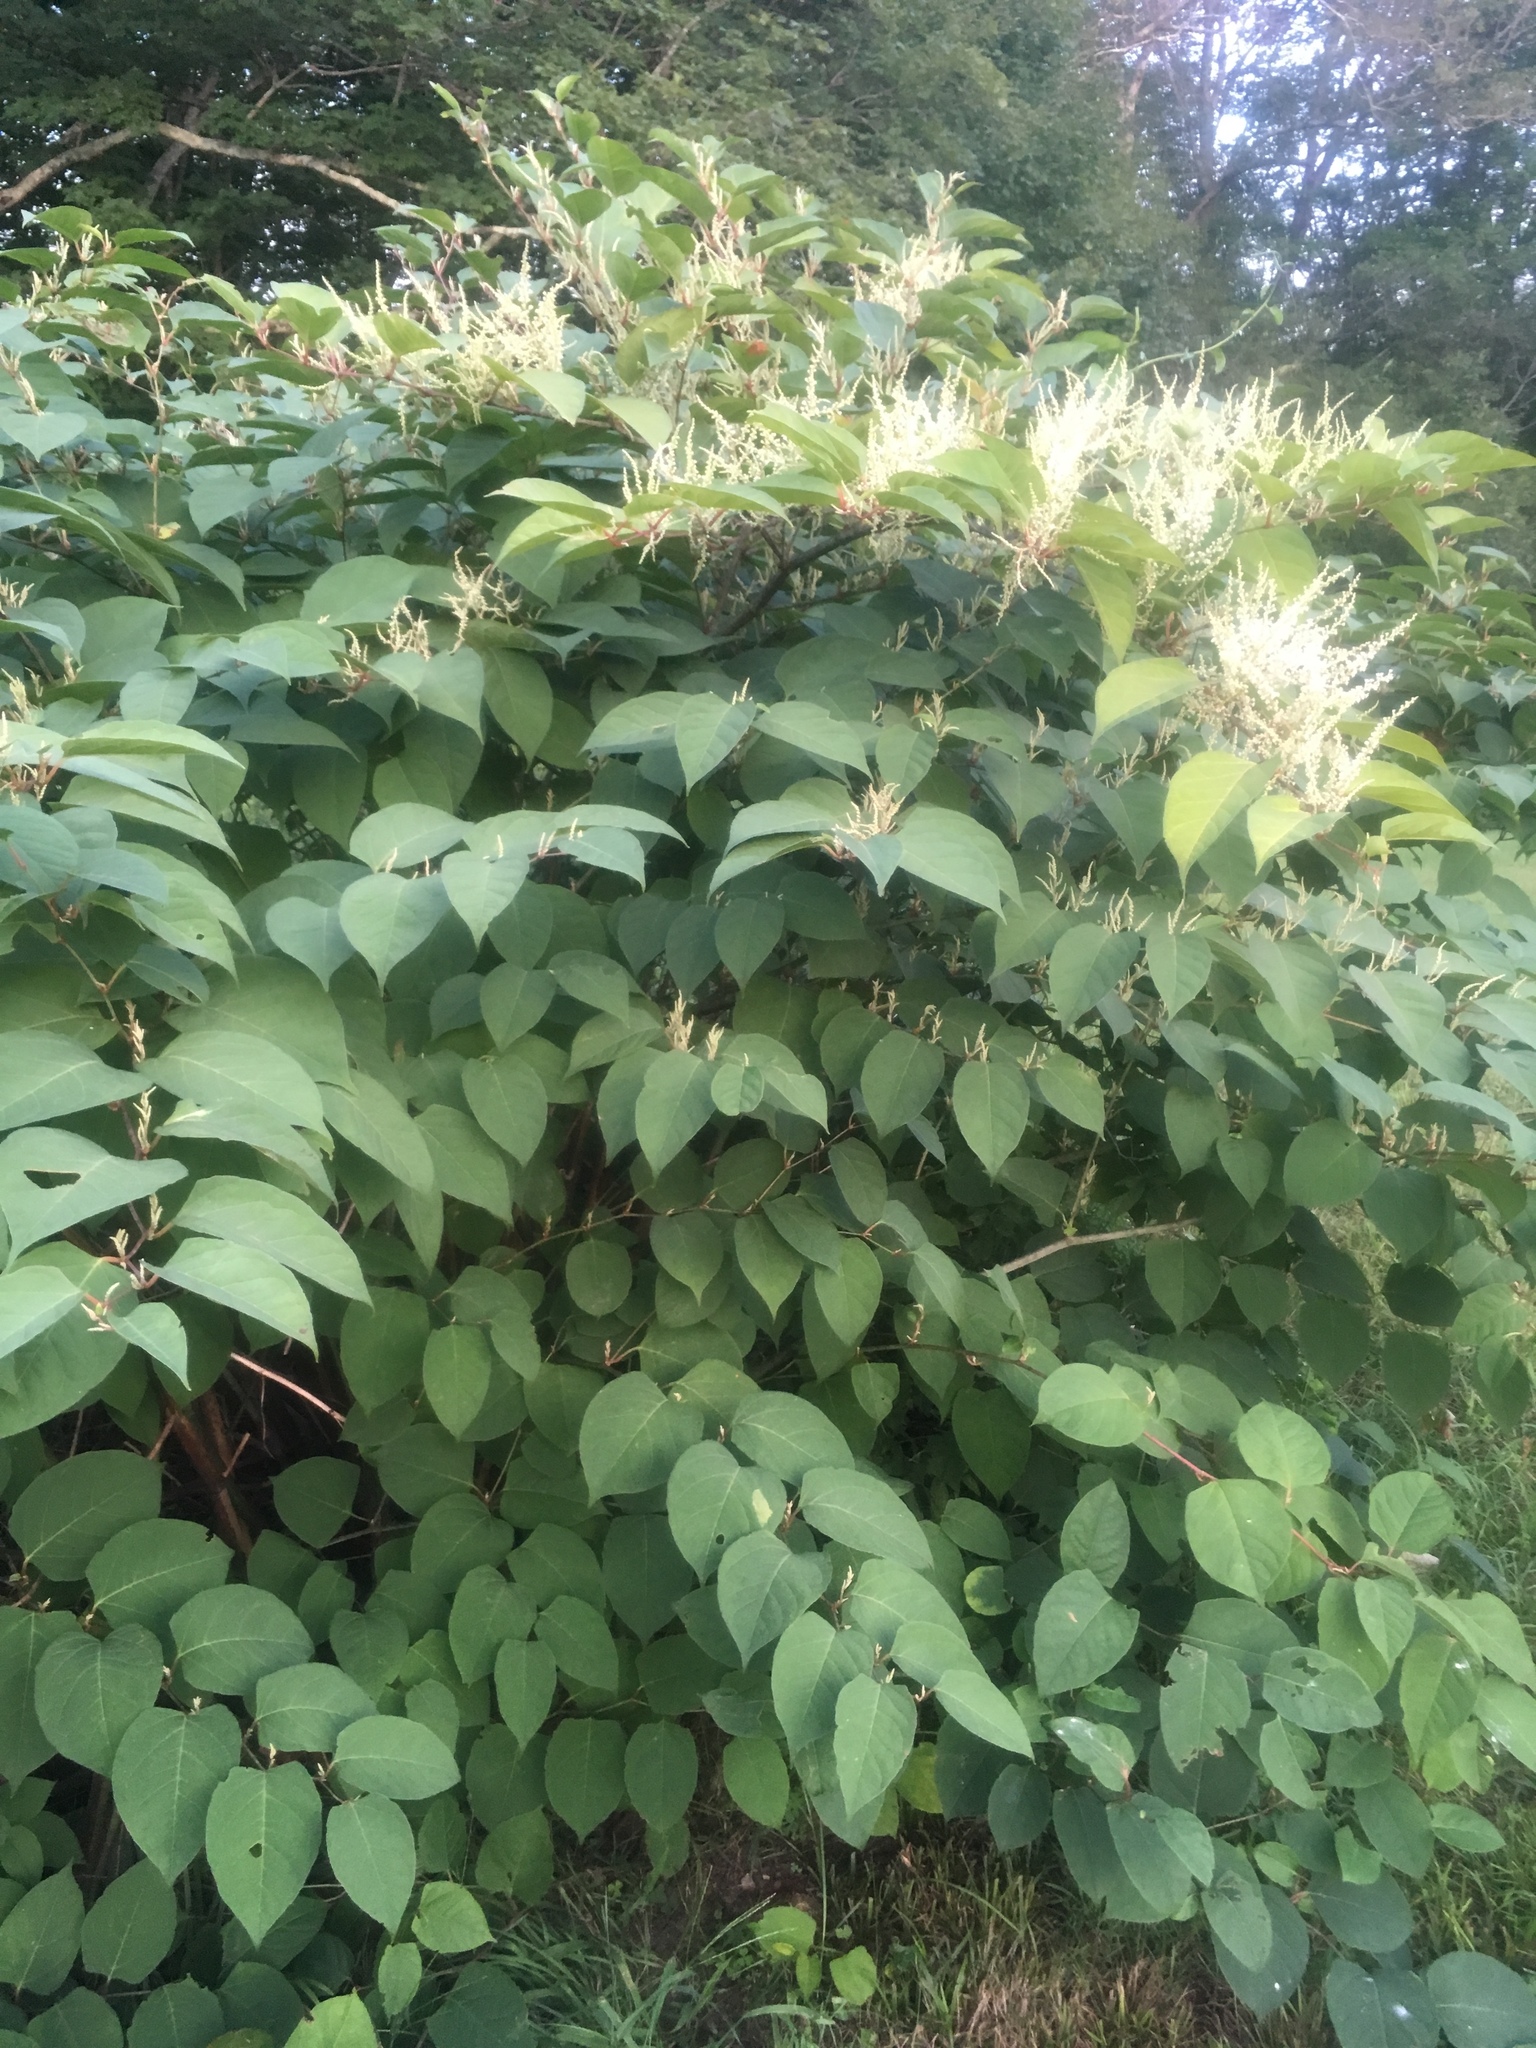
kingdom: Plantae
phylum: Tracheophyta
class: Magnoliopsida
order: Caryophyllales
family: Polygonaceae
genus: Reynoutria
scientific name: Reynoutria japonica
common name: Japanese knotweed
